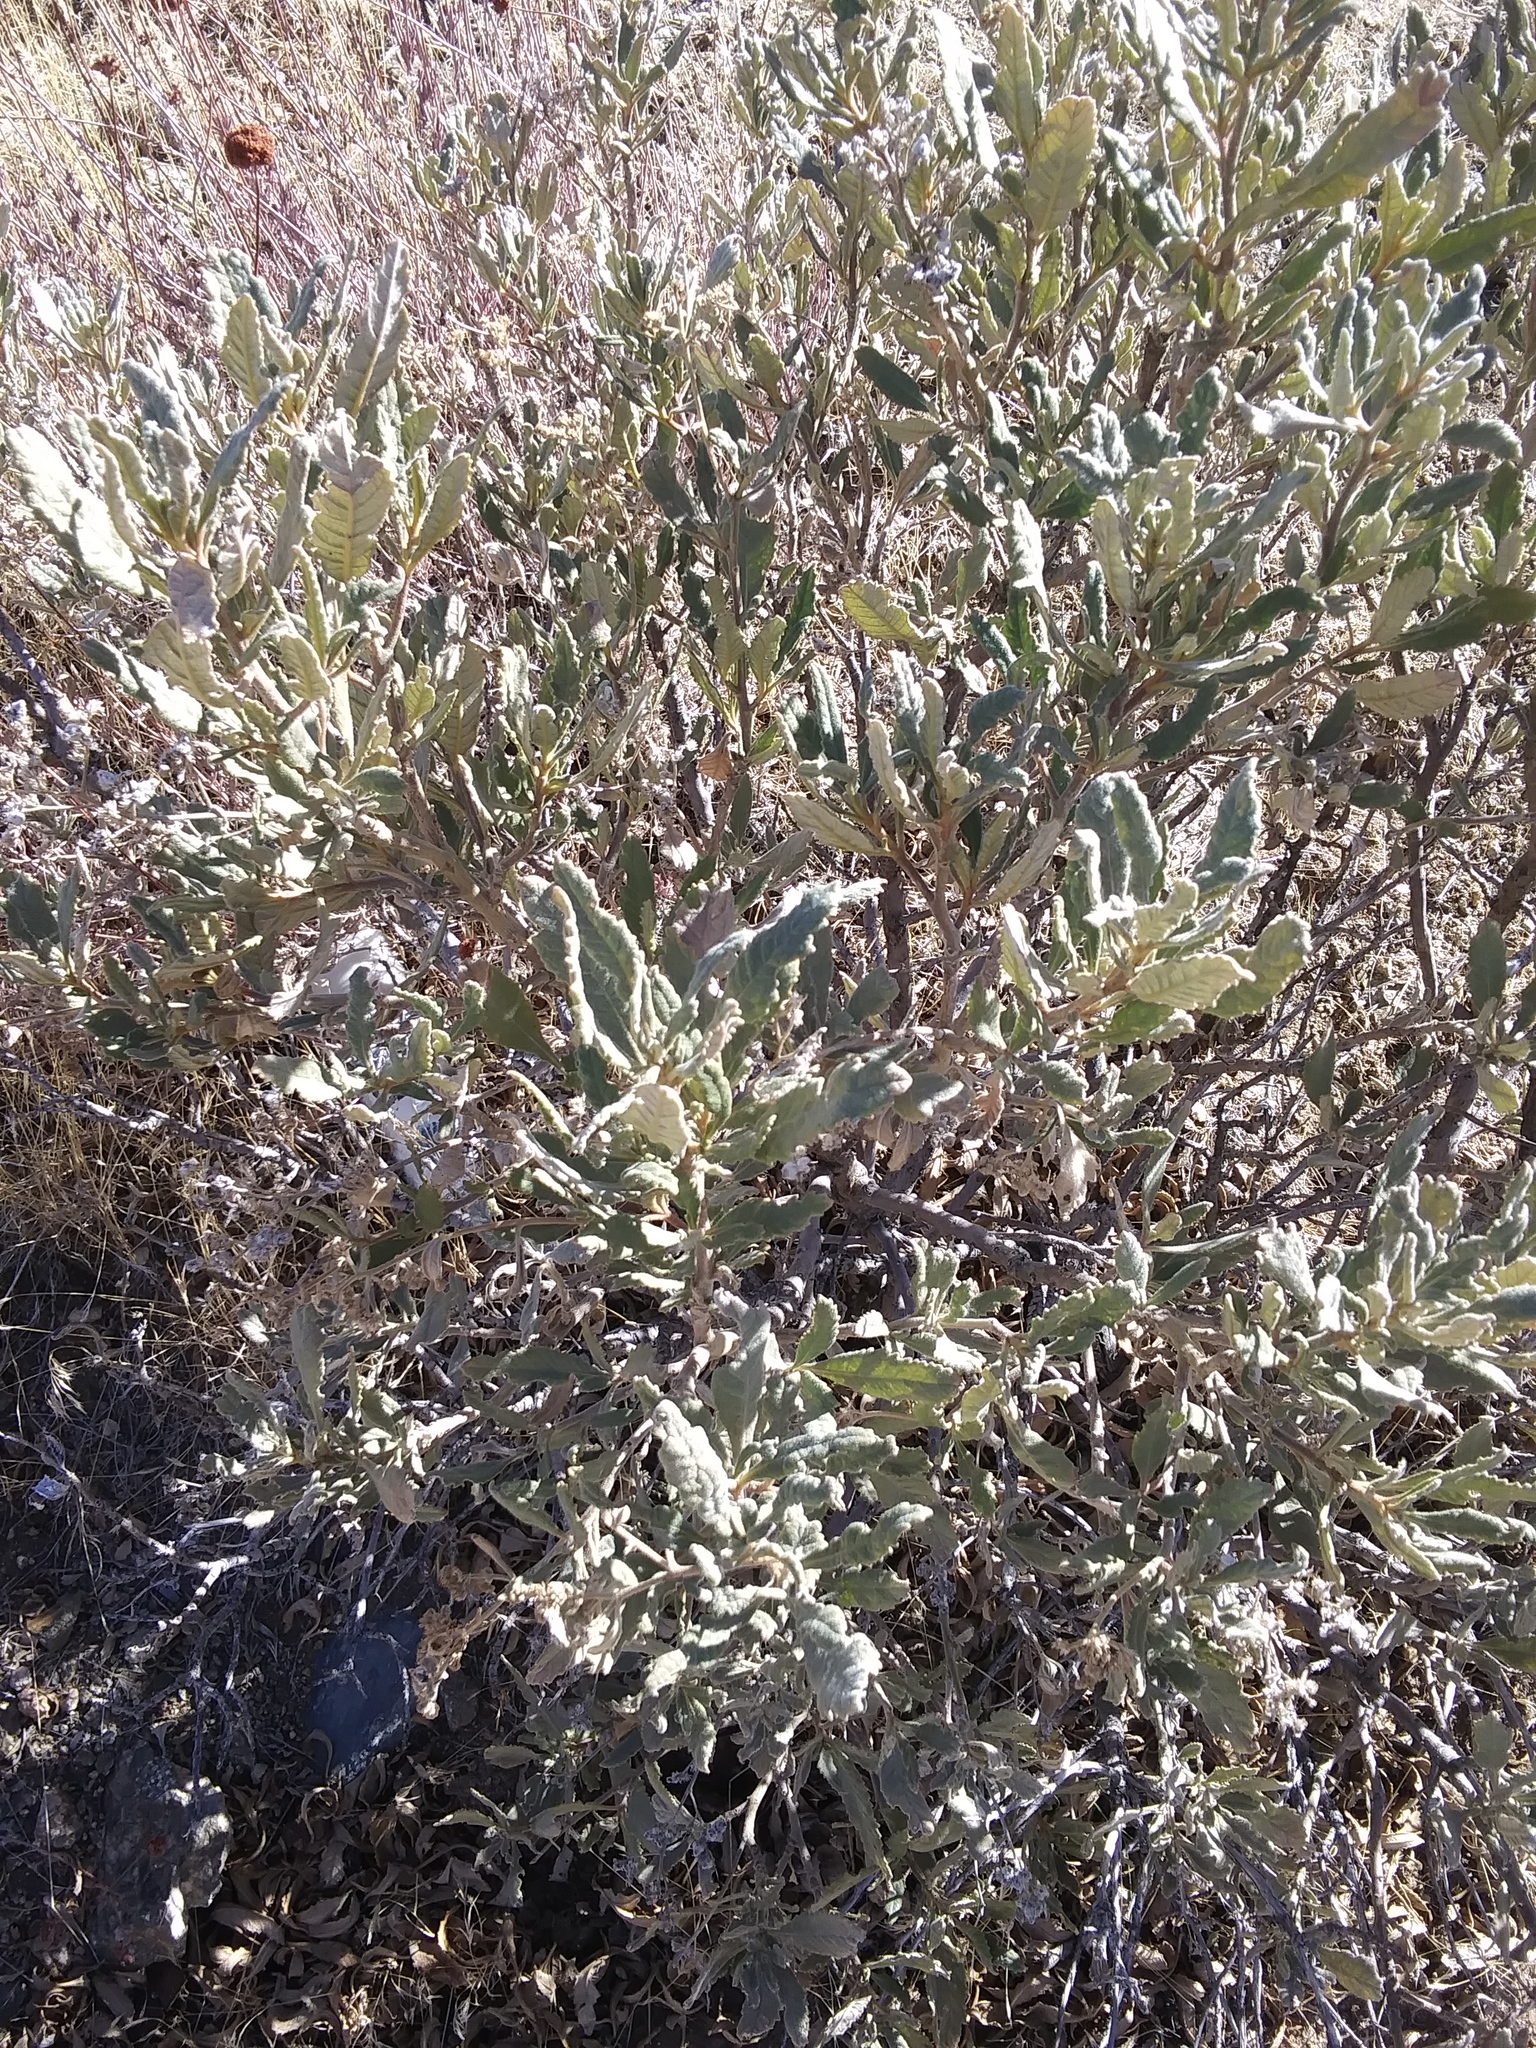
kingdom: Plantae
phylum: Tracheophyta
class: Magnoliopsida
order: Boraginales
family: Namaceae
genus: Eriodictyon
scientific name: Eriodictyon crassifolium
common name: Thick-leaf yerba-santa
